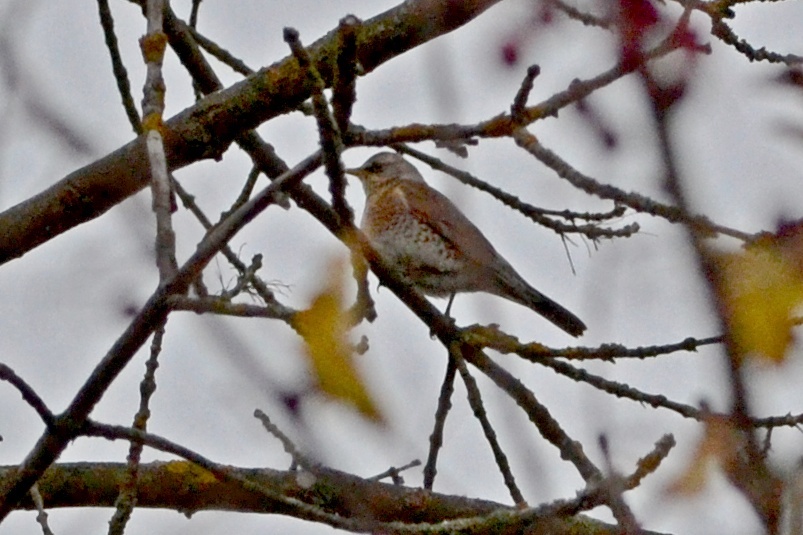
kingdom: Animalia
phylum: Chordata
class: Aves
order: Passeriformes
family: Turdidae
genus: Turdus
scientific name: Turdus pilaris
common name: Fieldfare
